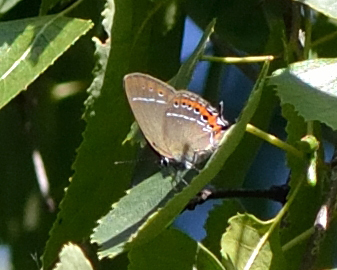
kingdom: Animalia
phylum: Arthropoda
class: Insecta
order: Lepidoptera
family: Lycaenidae
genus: Fixsenia
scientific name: Fixsenia pruni
